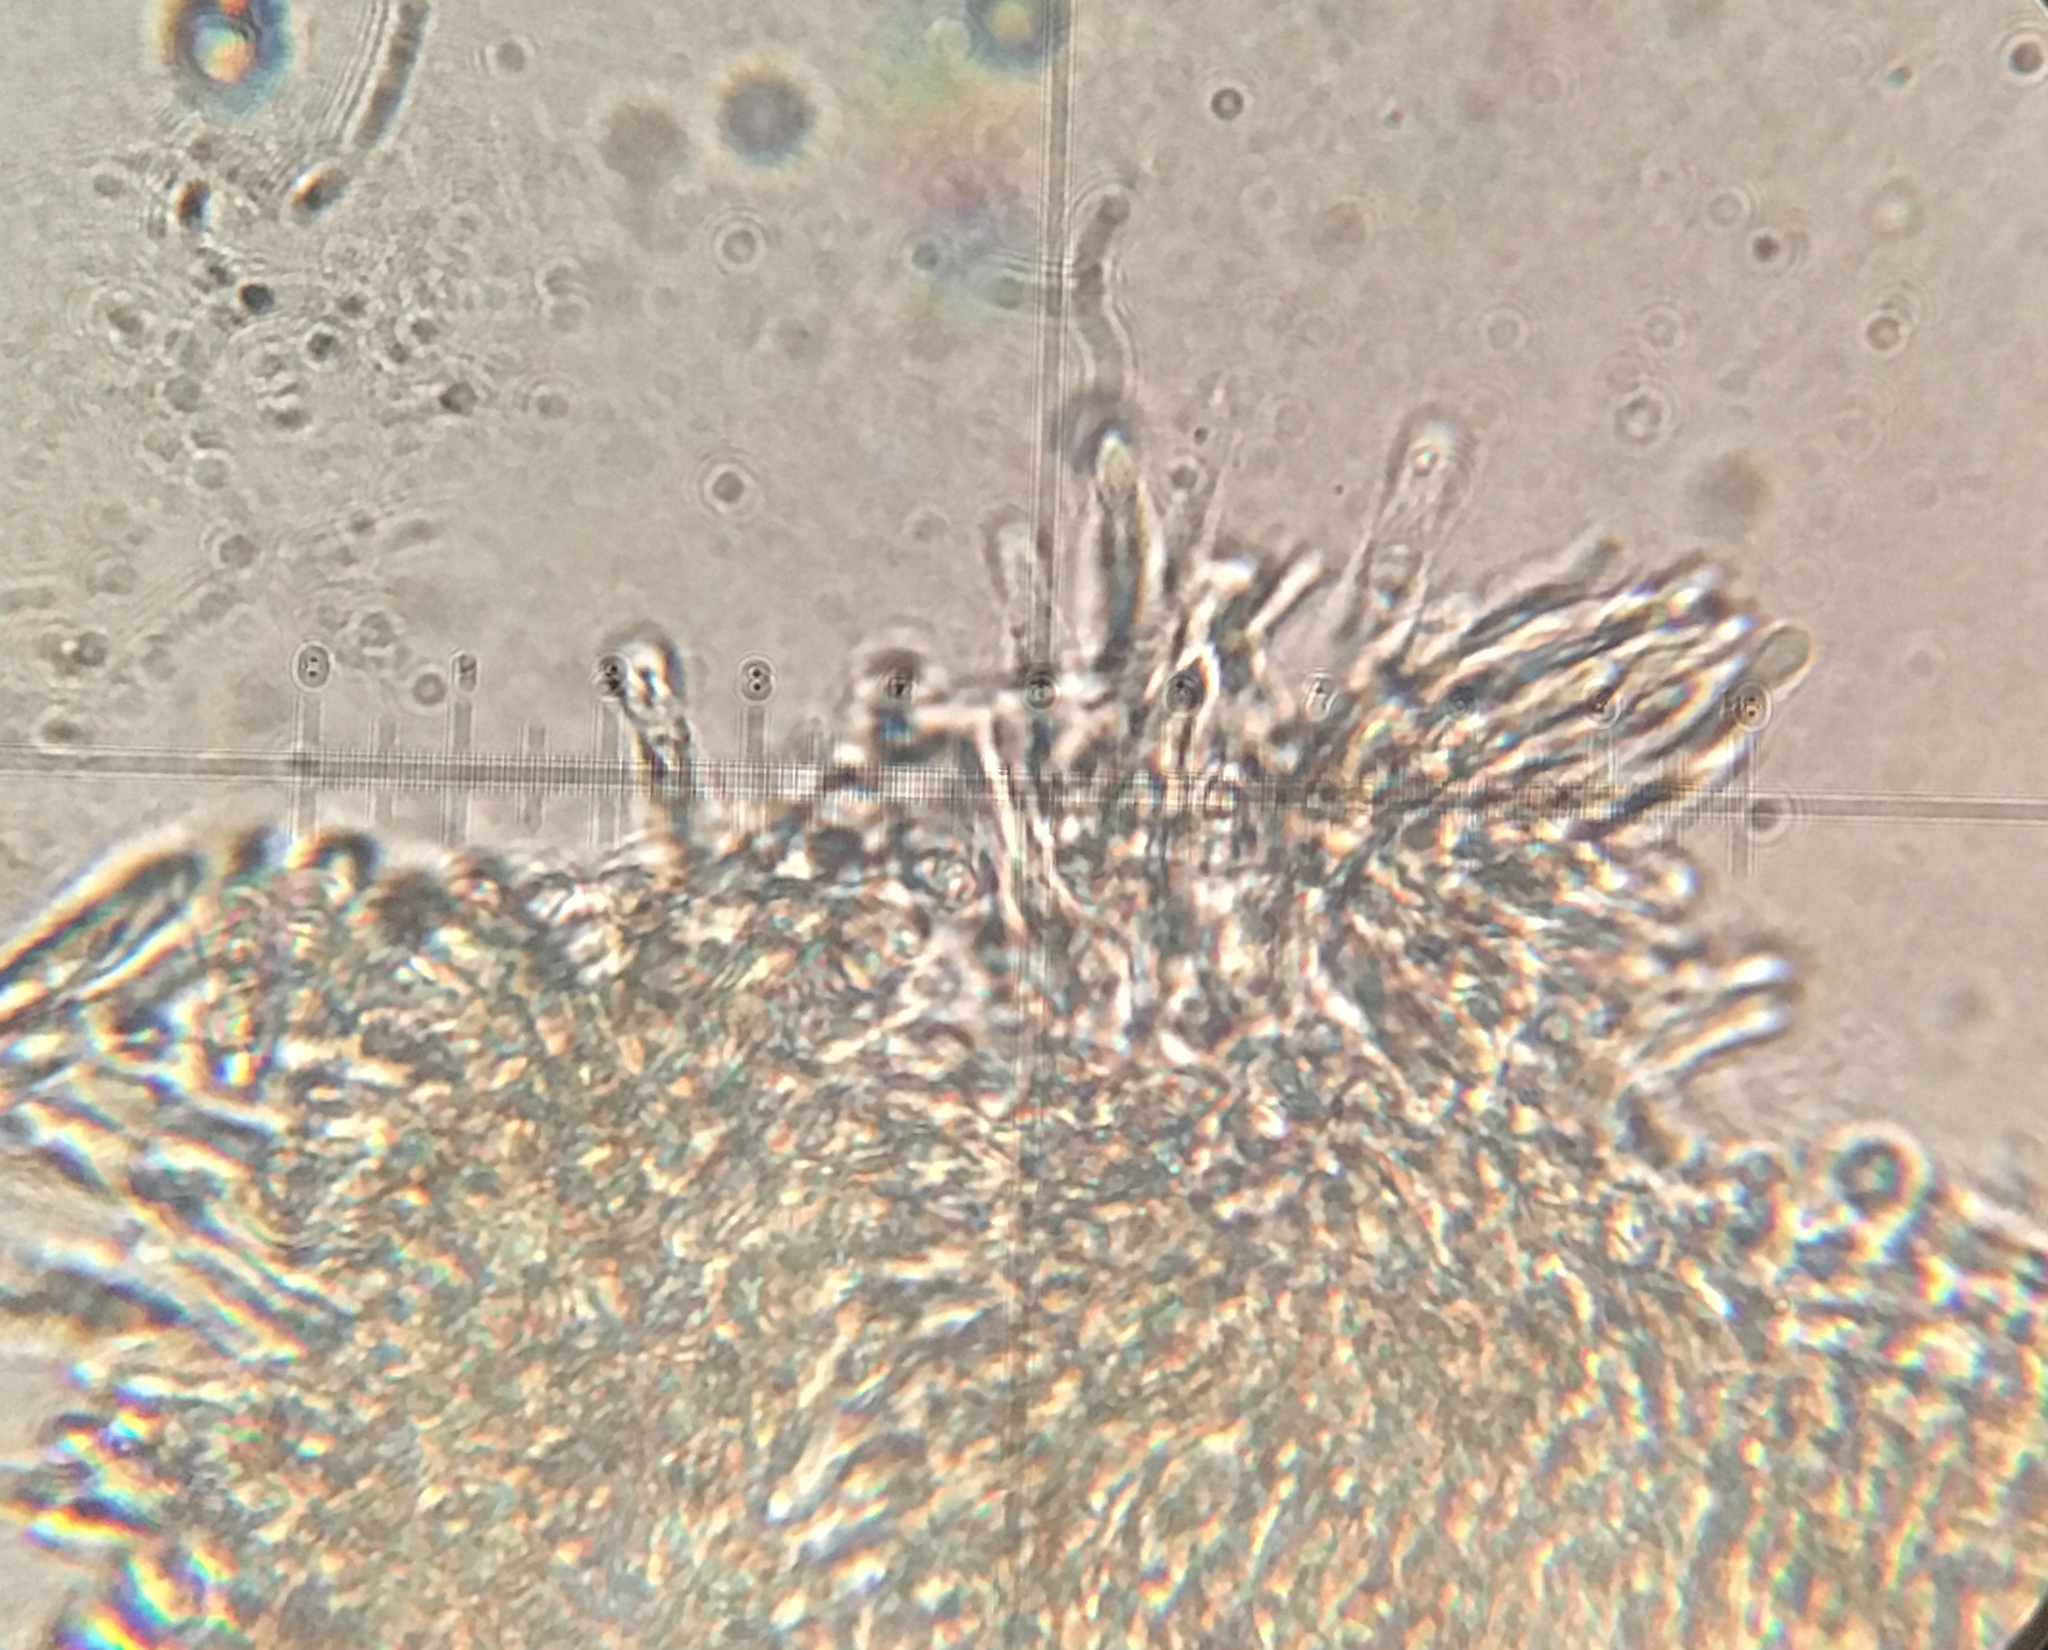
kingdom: Fungi
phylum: Ascomycota
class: Orbiliomycetes
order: Orbiliales
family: Orbiliaceae
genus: Orbilia
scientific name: Orbilia
